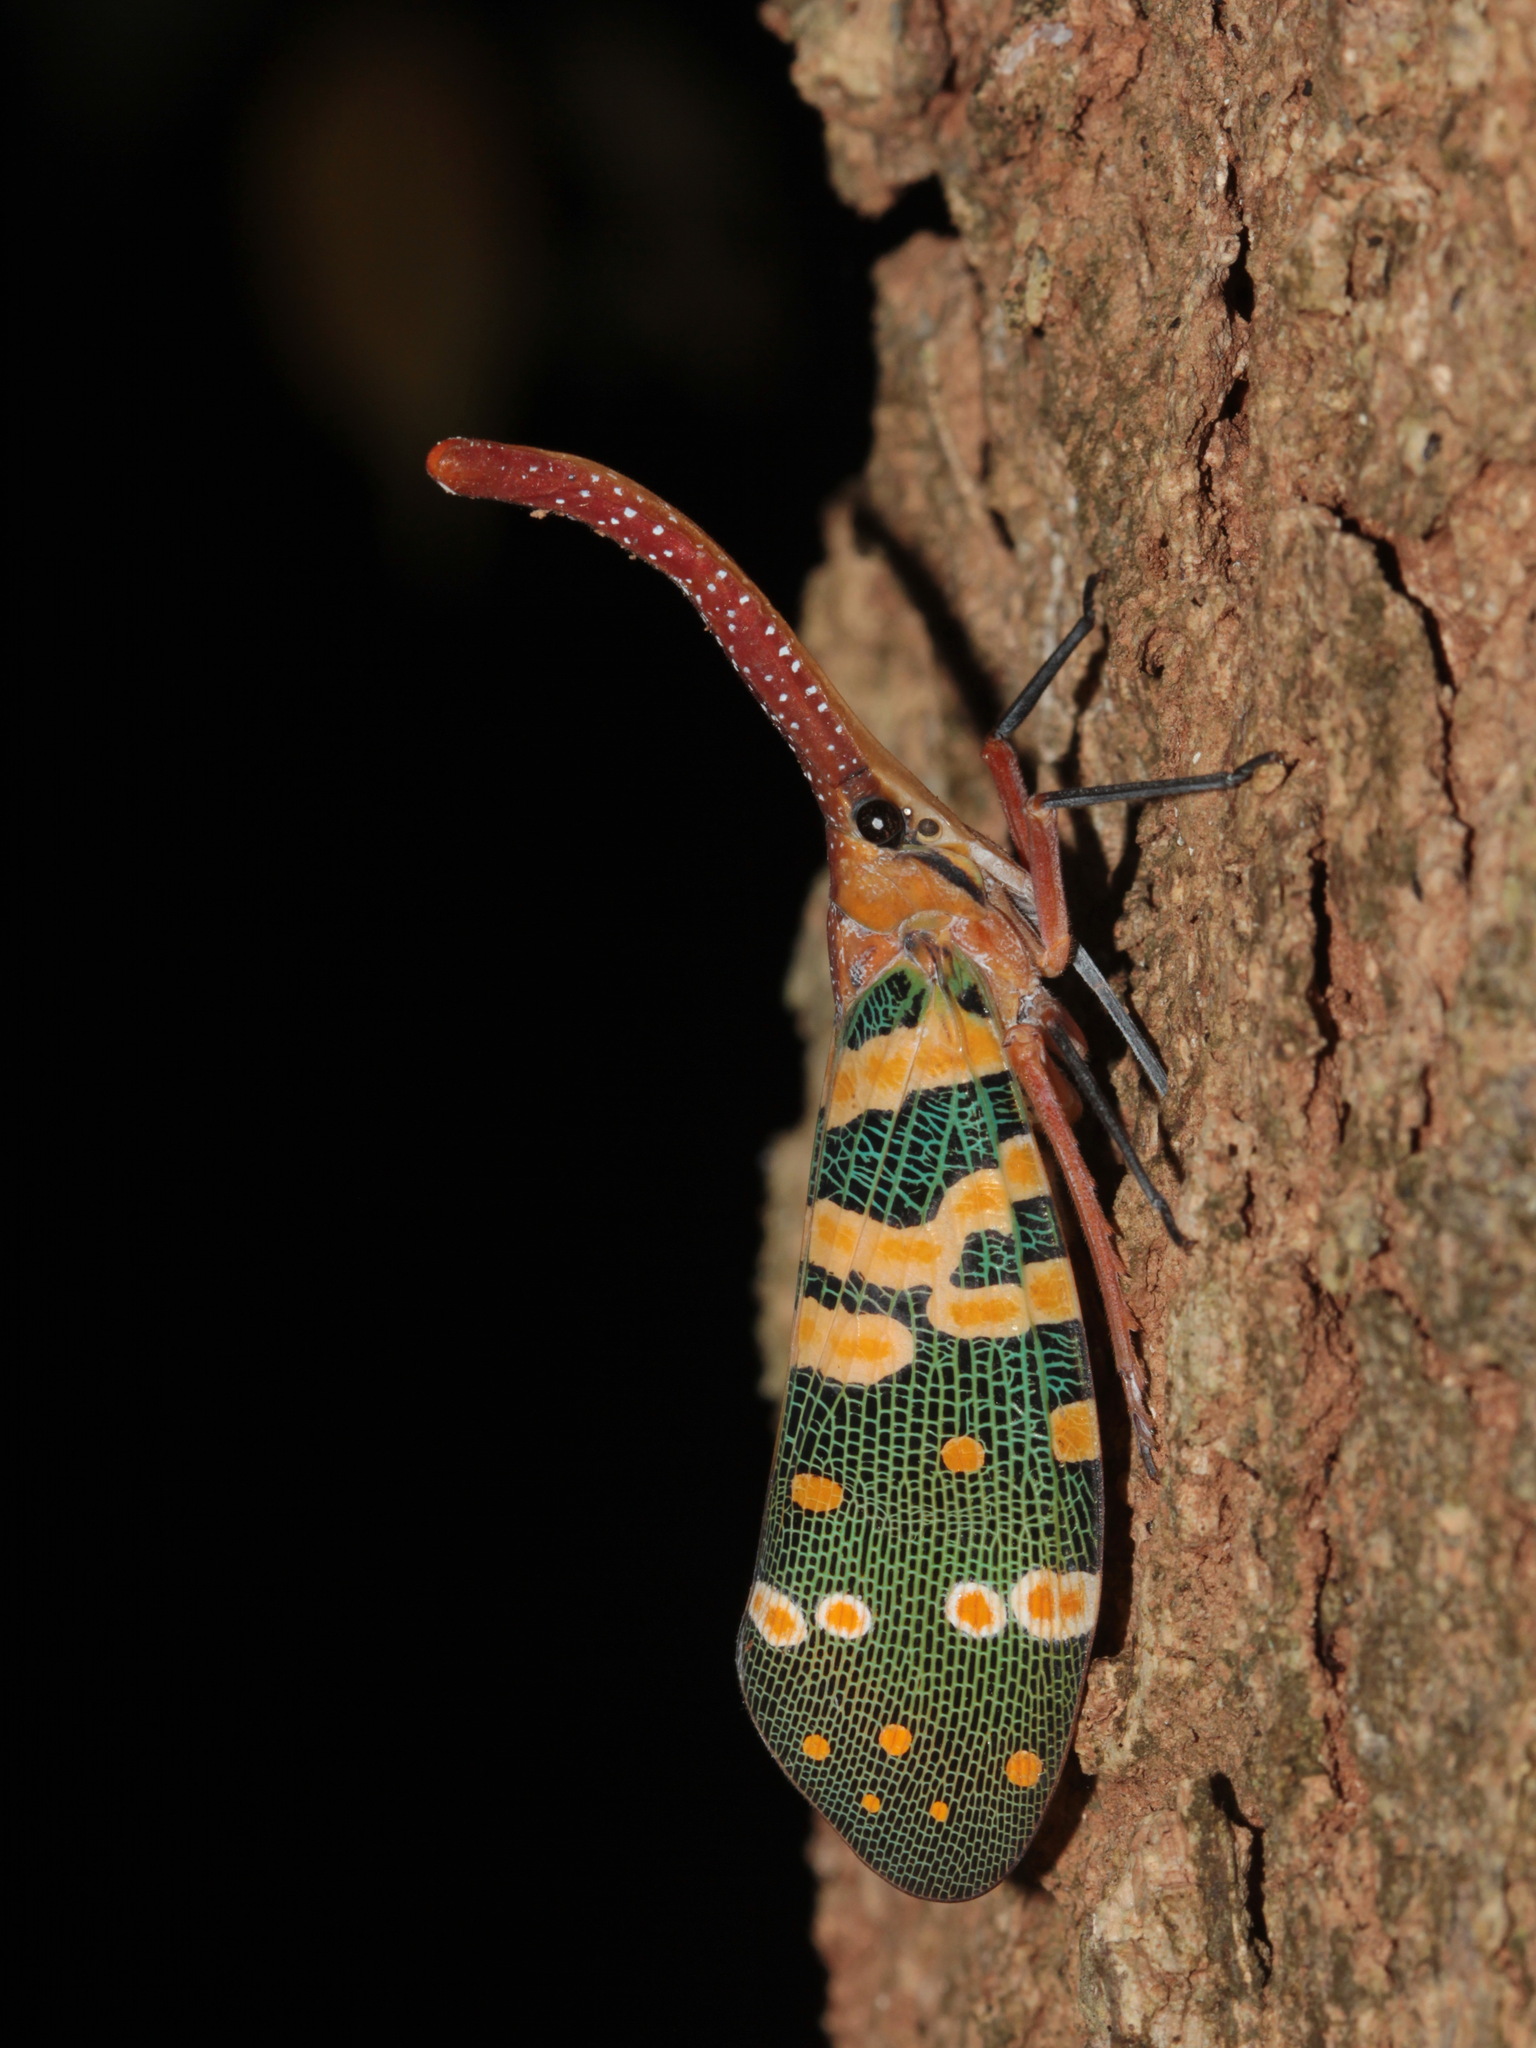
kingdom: Animalia
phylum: Arthropoda
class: Insecta
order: Hemiptera
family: Fulgoridae
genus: Pyrops
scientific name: Pyrops candelaria
